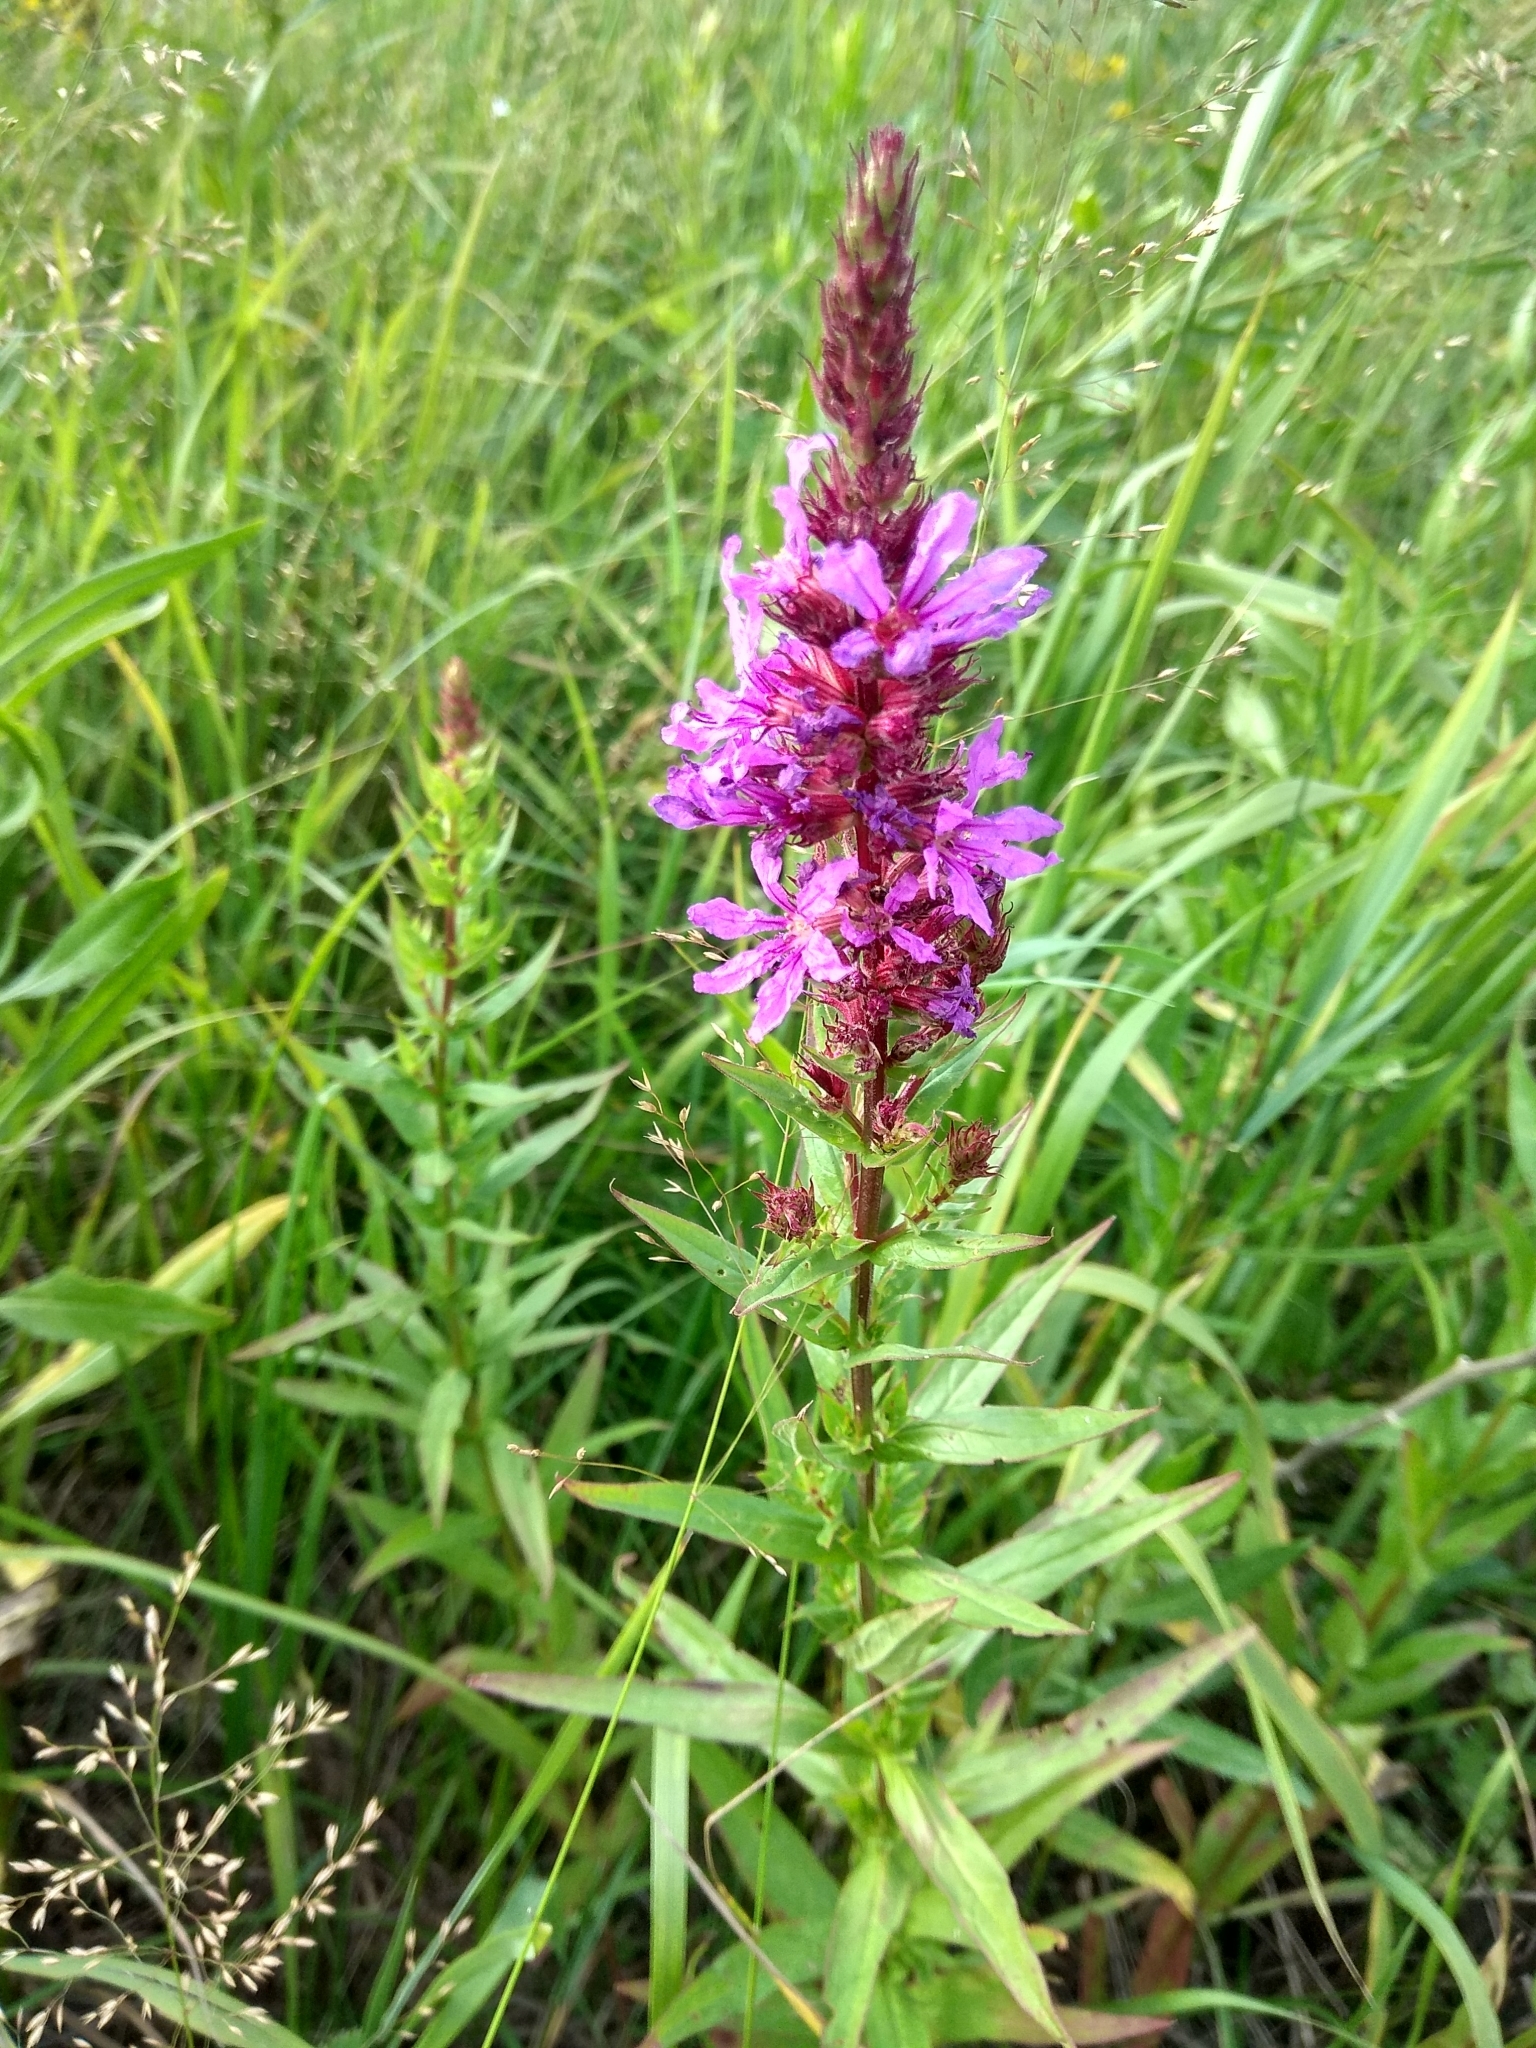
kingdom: Plantae
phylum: Tracheophyta
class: Magnoliopsida
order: Myrtales
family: Lythraceae
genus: Lythrum
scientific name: Lythrum salicaria
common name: Purple loosestrife
